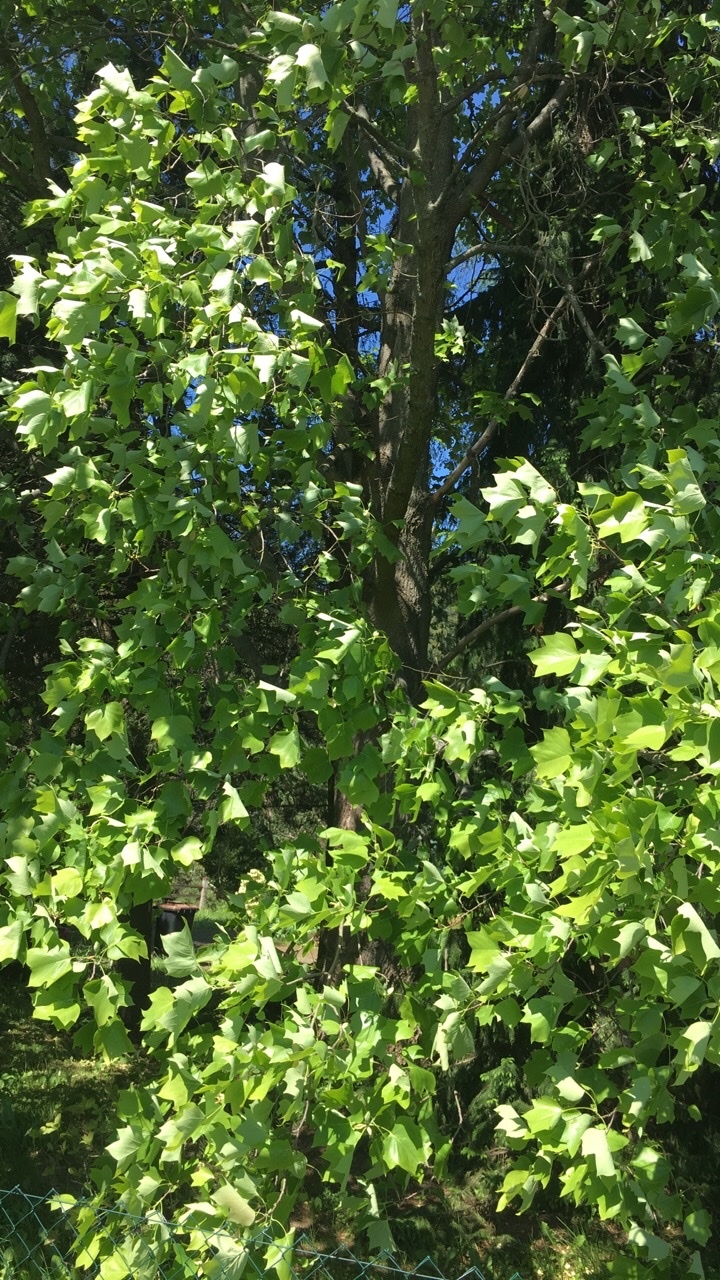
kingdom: Plantae
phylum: Tracheophyta
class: Magnoliopsida
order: Magnoliales
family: Magnoliaceae
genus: Liriodendron
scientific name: Liriodendron tulipifera
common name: Tulip tree
